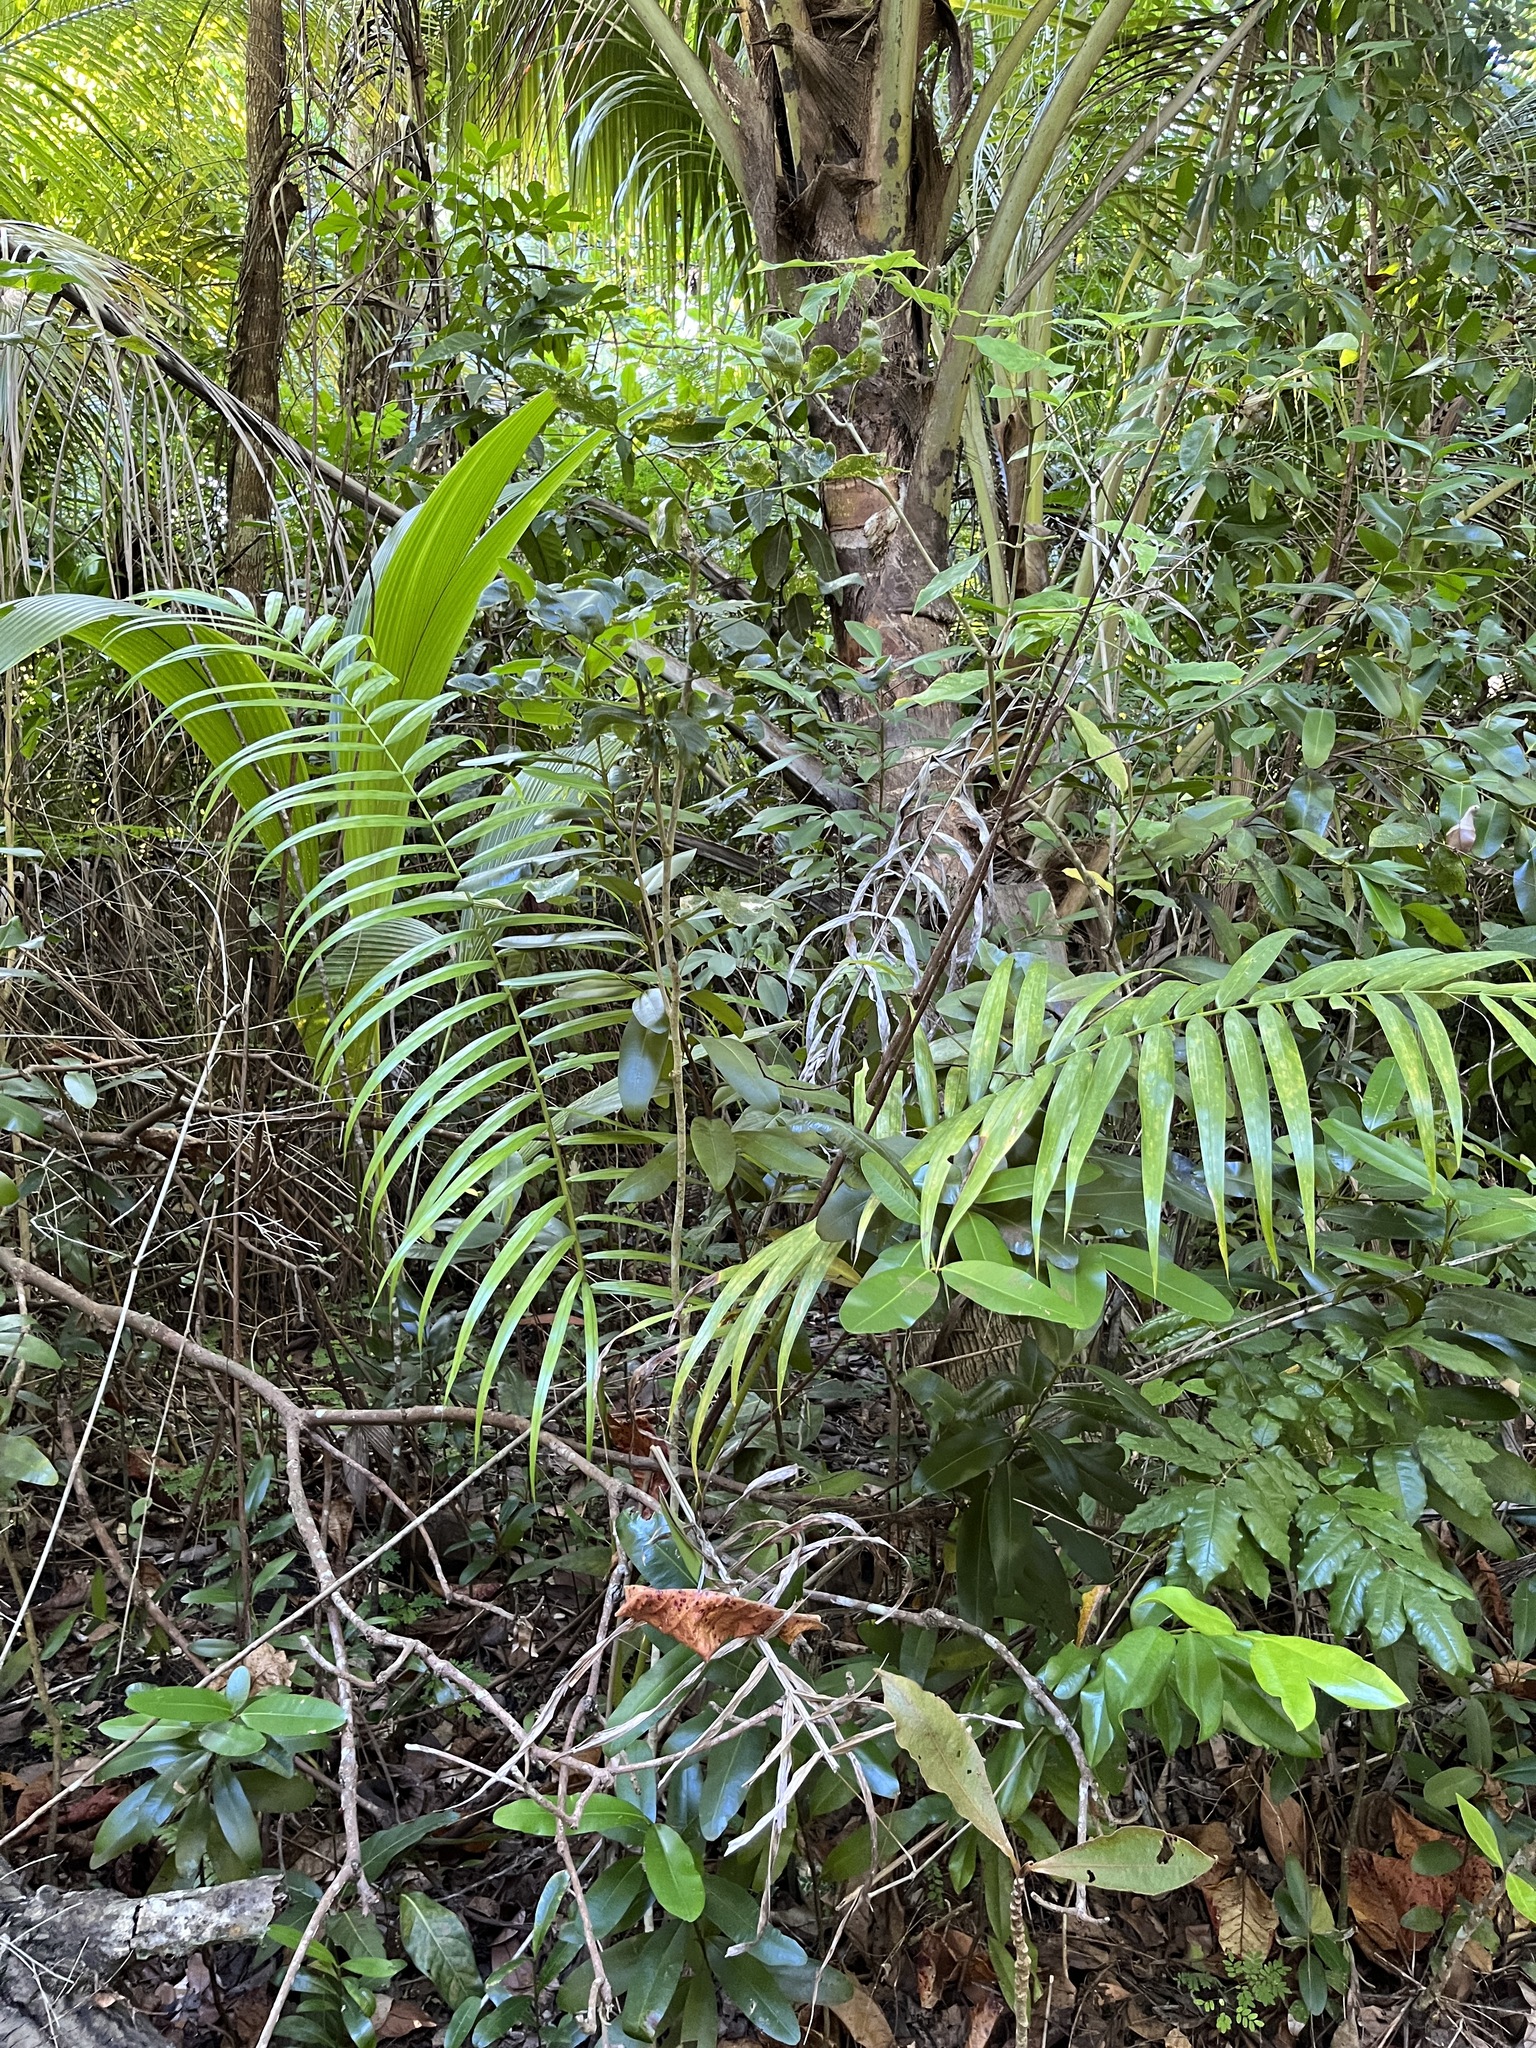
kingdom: Plantae
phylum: Tracheophyta
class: Liliopsida
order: Arecales
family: Arecaceae
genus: Roystonea
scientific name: Roystonea borinquena
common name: Puerto rican royal palm
